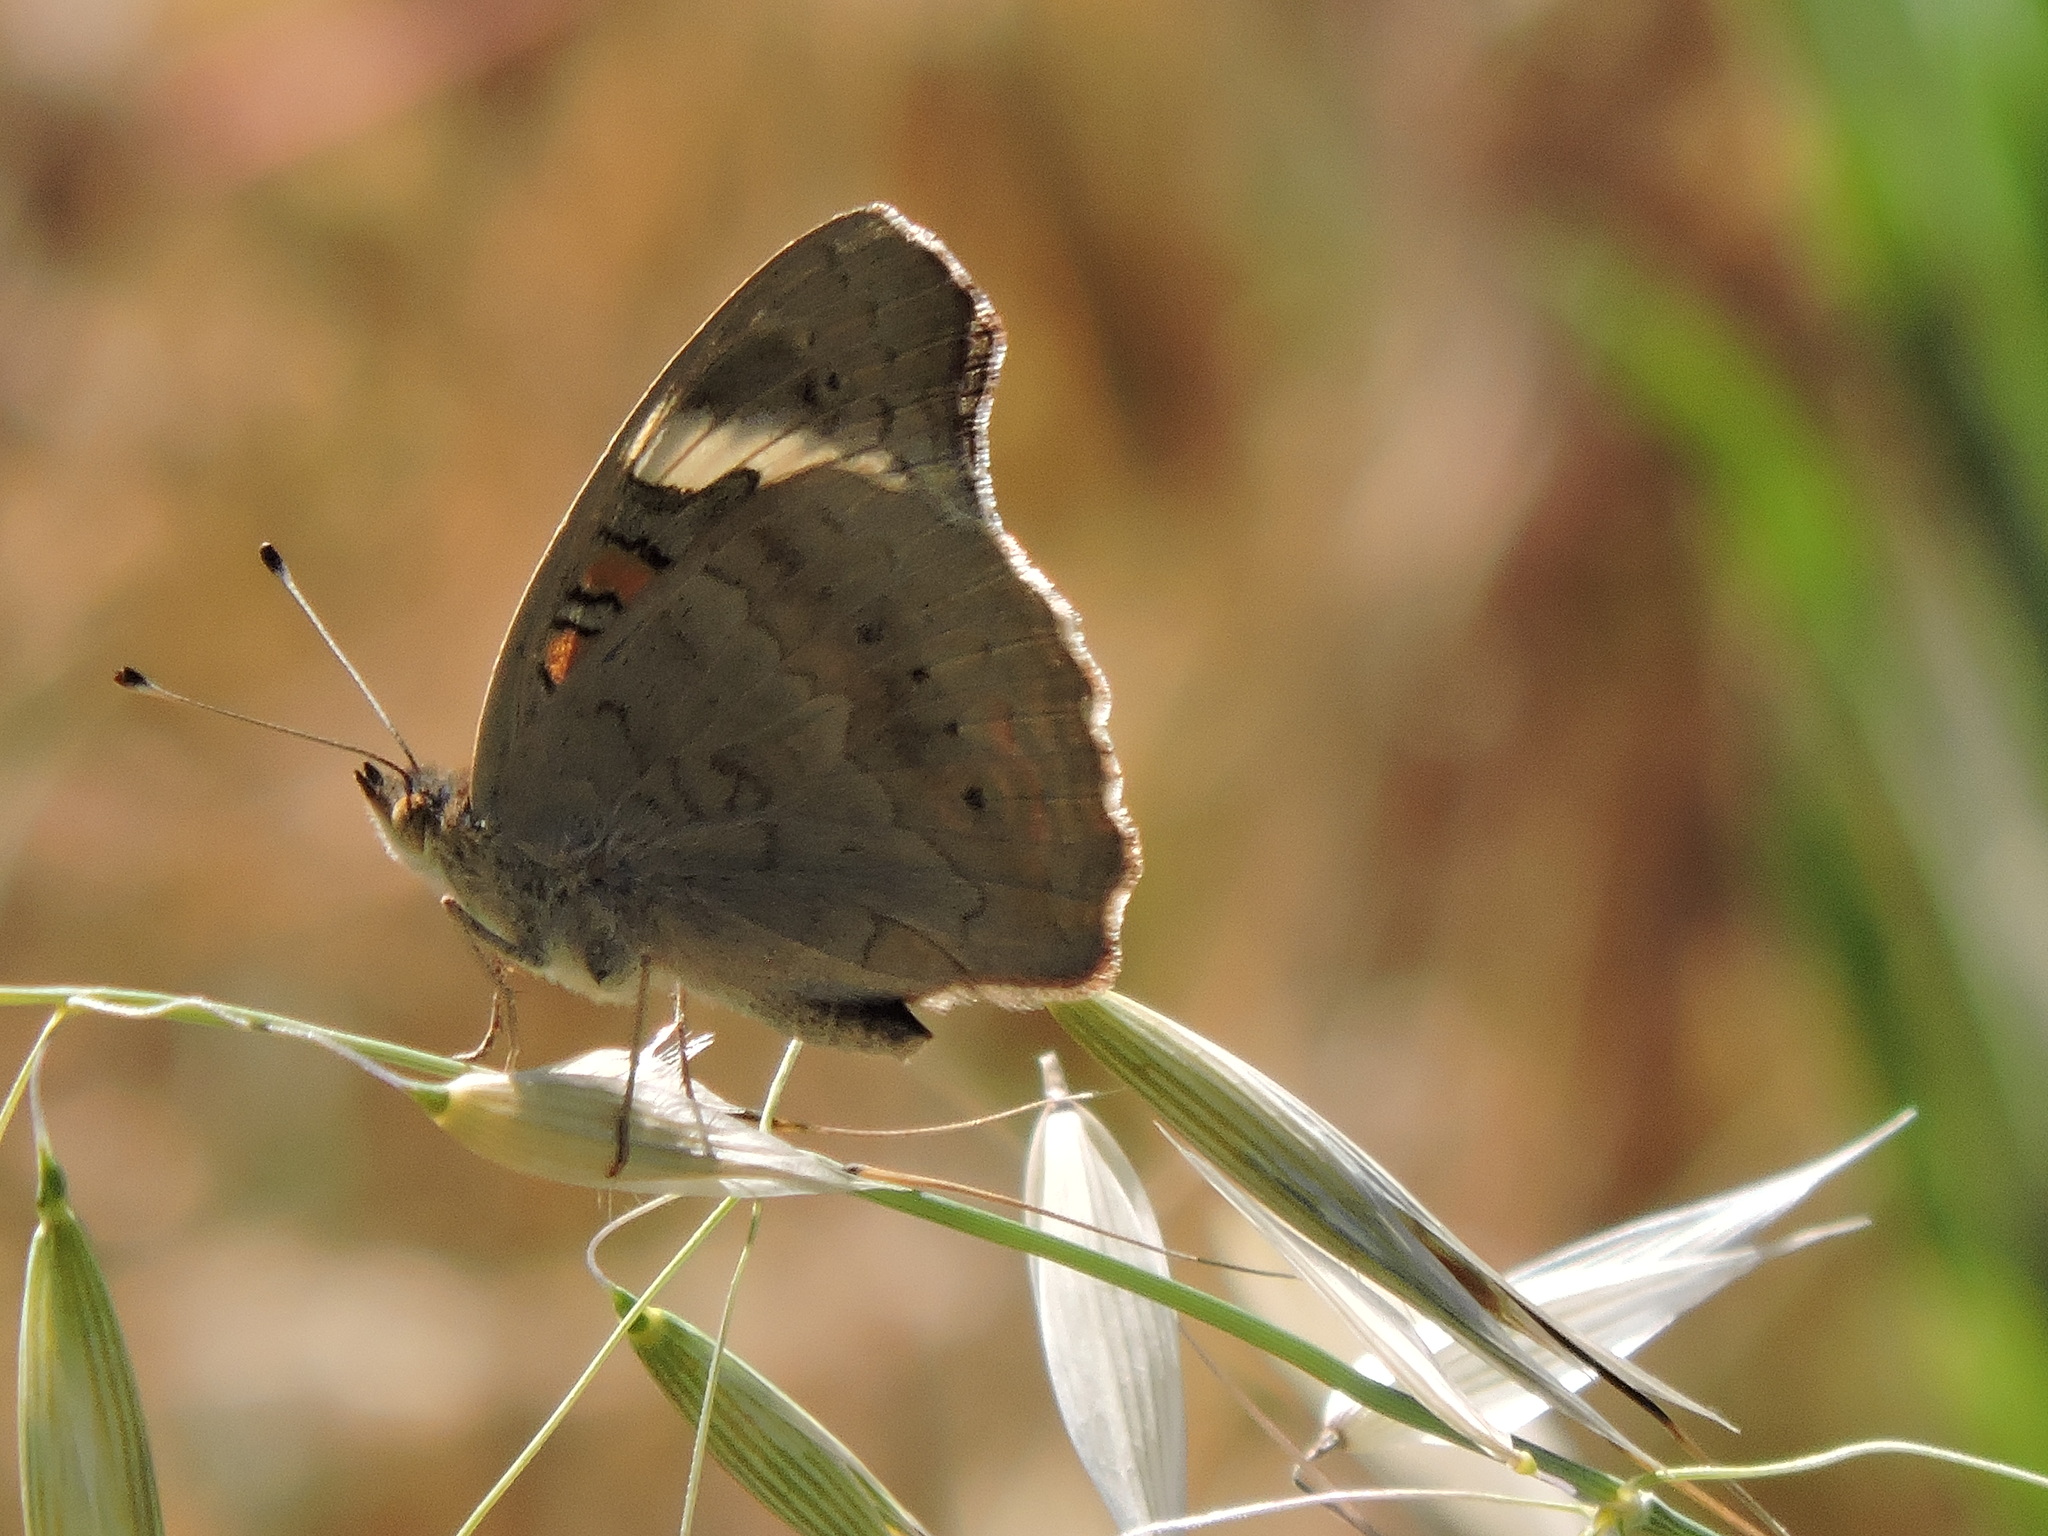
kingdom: Animalia
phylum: Arthropoda
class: Insecta
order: Lepidoptera
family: Nymphalidae
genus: Junonia
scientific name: Junonia grisea
